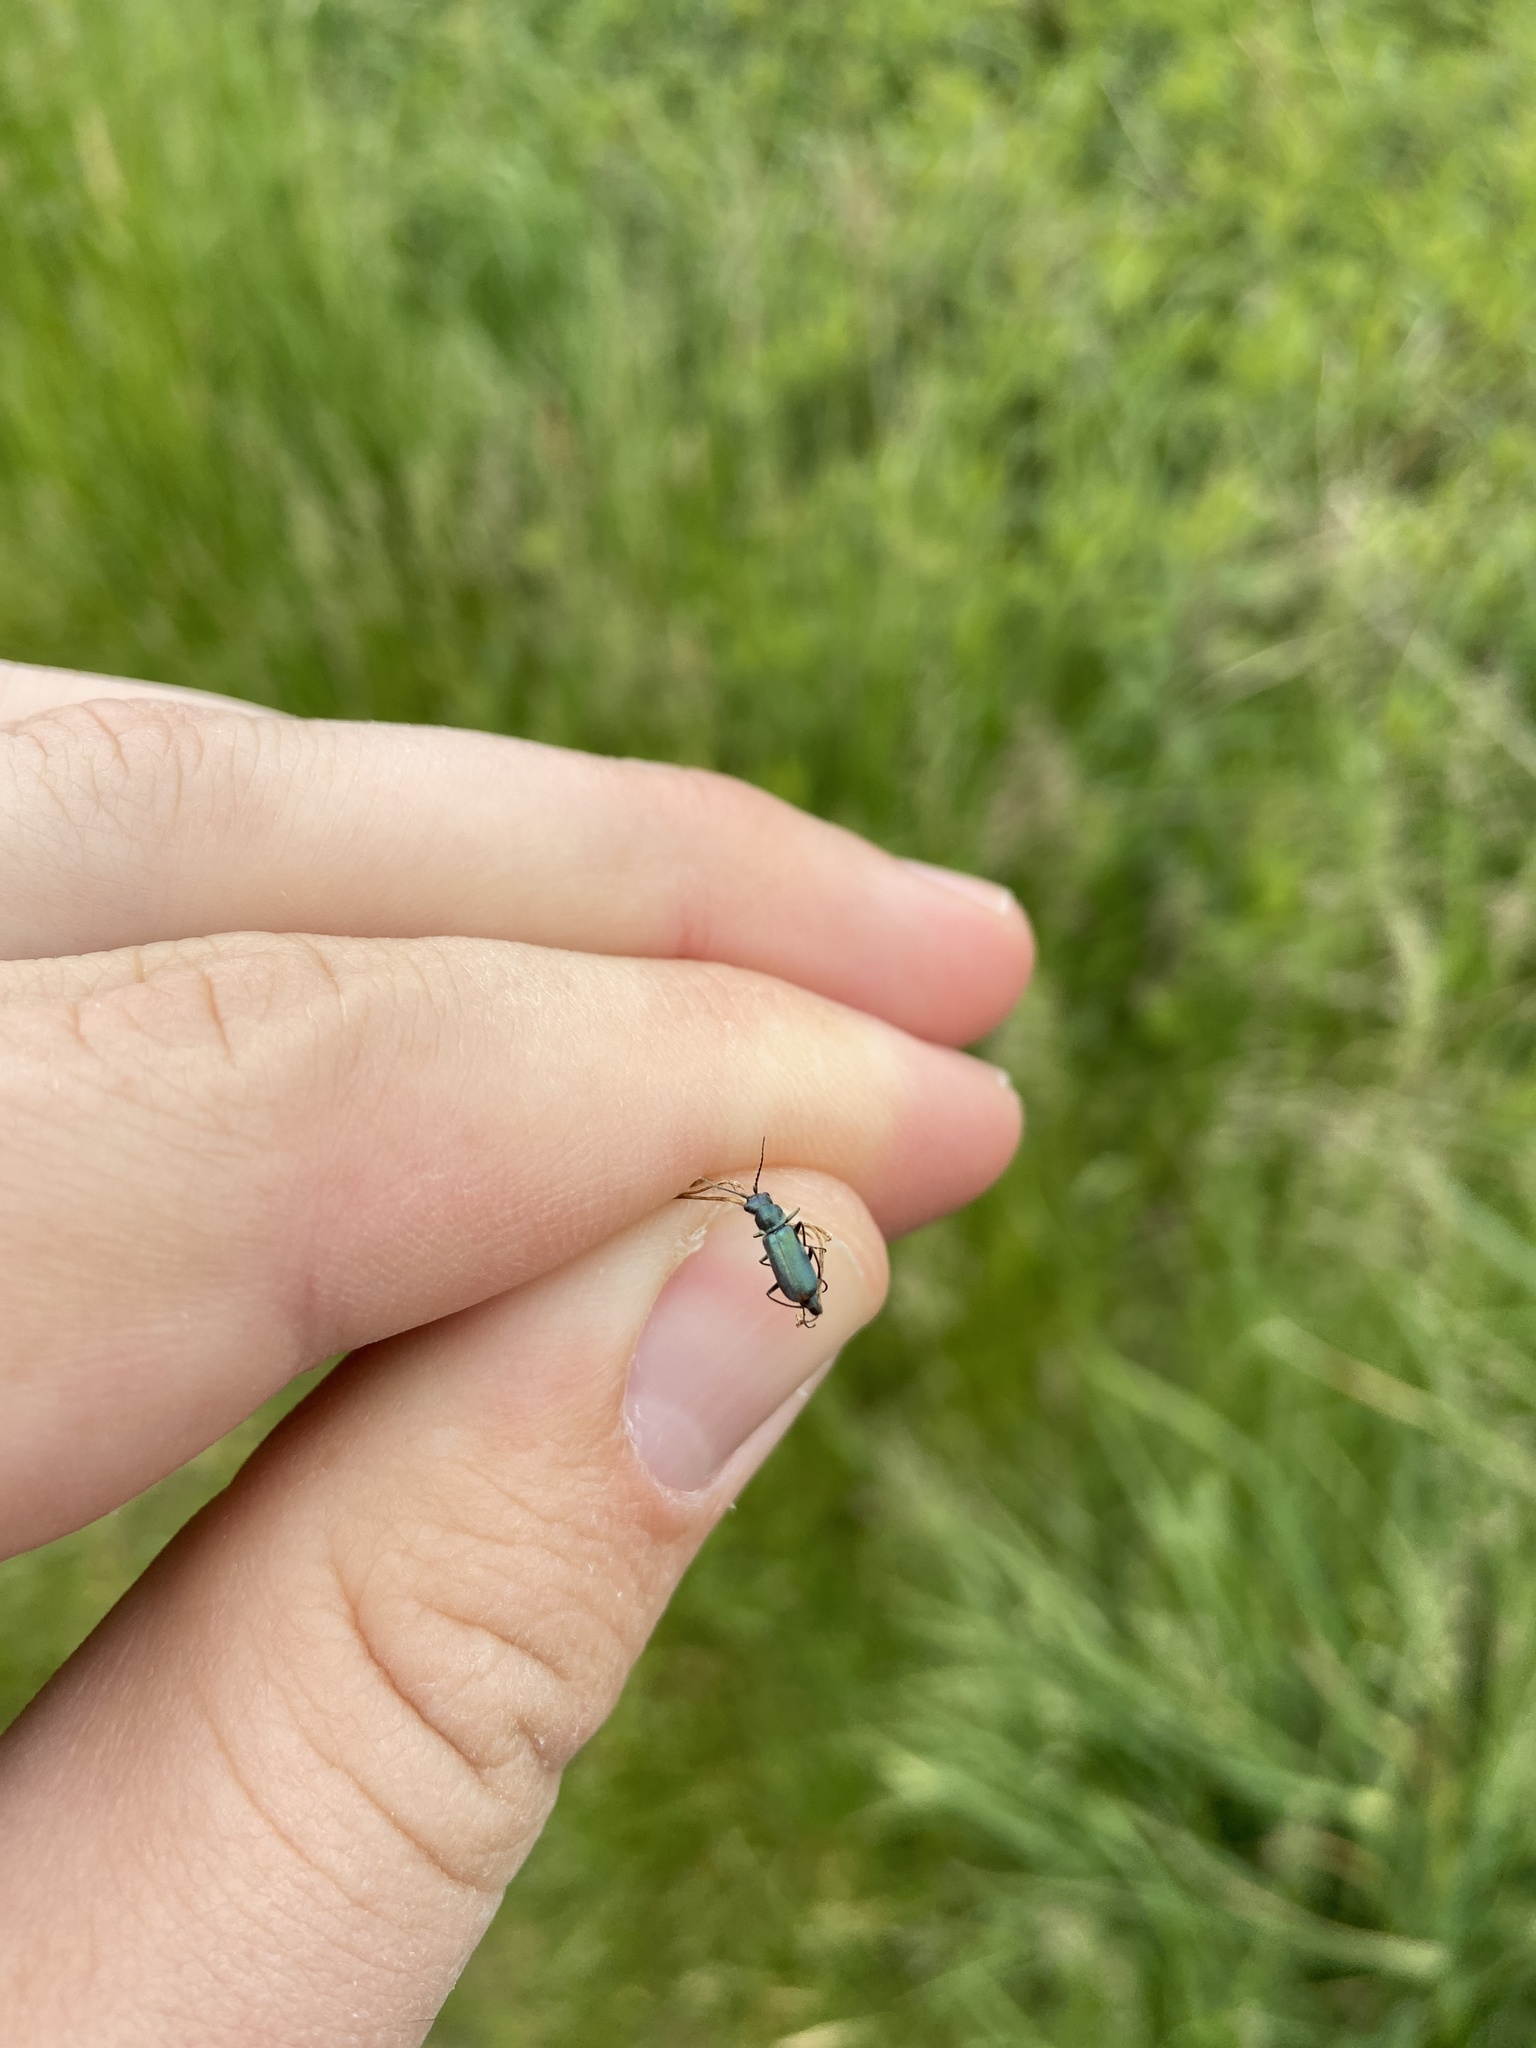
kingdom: Animalia
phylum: Arthropoda
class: Insecta
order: Coleoptera
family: Malachiidae
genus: Cordylepherus
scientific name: Cordylepherus viridis
